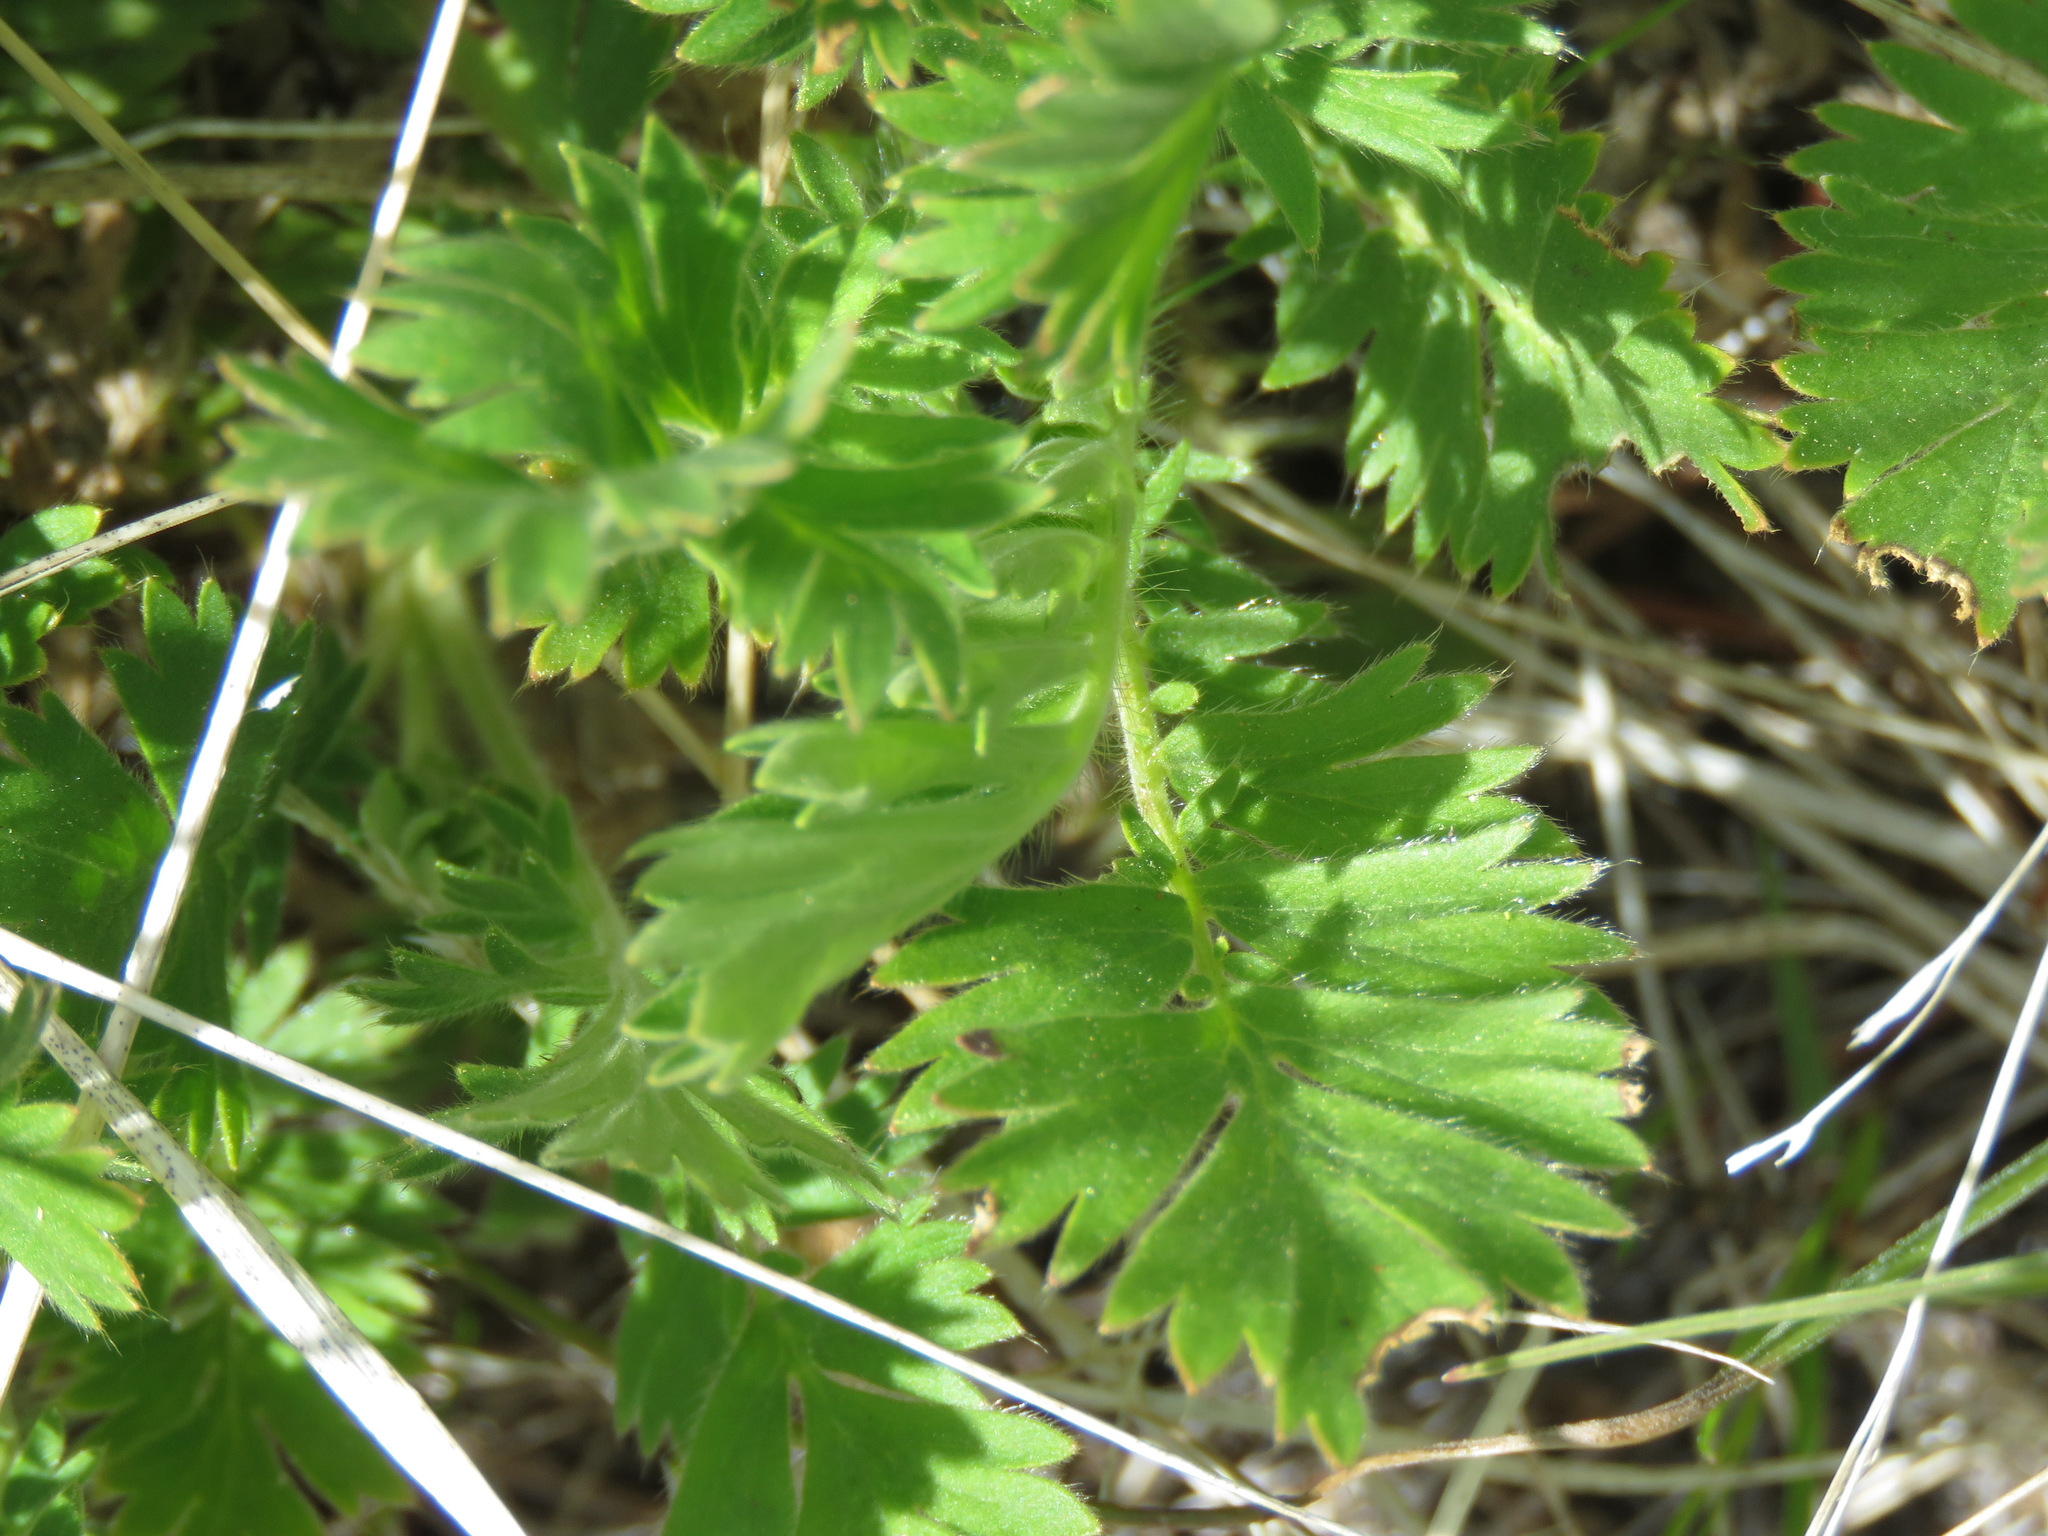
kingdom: Plantae
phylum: Tracheophyta
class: Magnoliopsida
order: Rosales
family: Rosaceae
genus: Geum
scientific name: Geum triflorum
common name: Old man's whiskers
